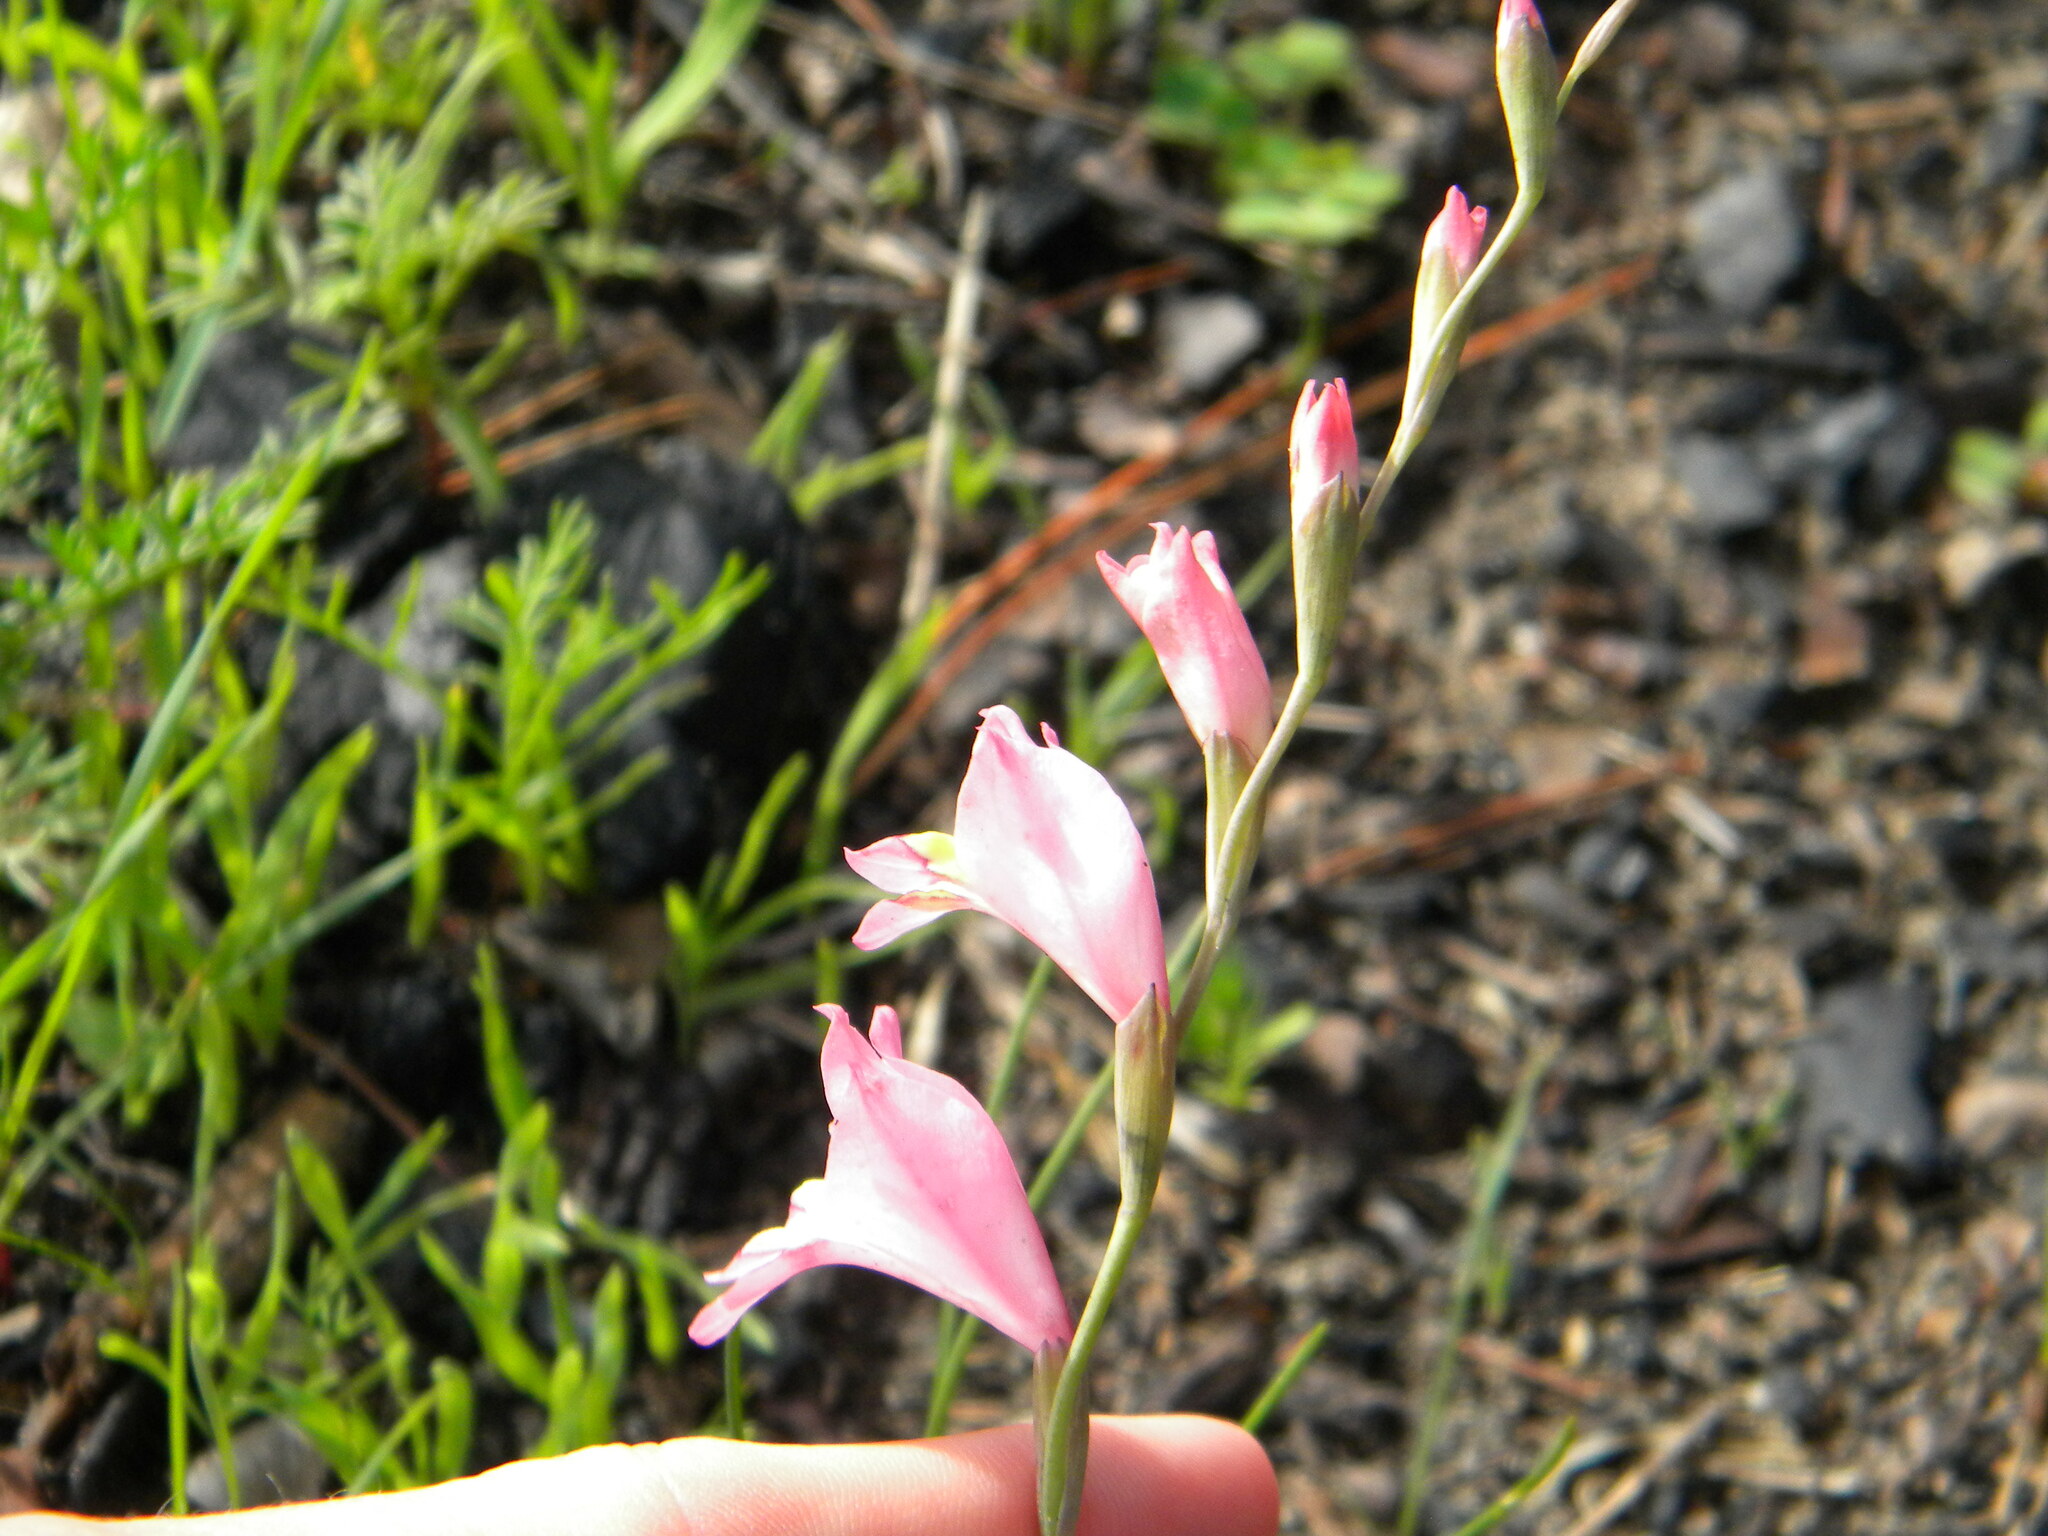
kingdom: Plantae
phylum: Tracheophyta
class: Liliopsida
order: Asparagales
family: Iridaceae
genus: Gladiolus
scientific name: Gladiolus brevifolius
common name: March pypie
